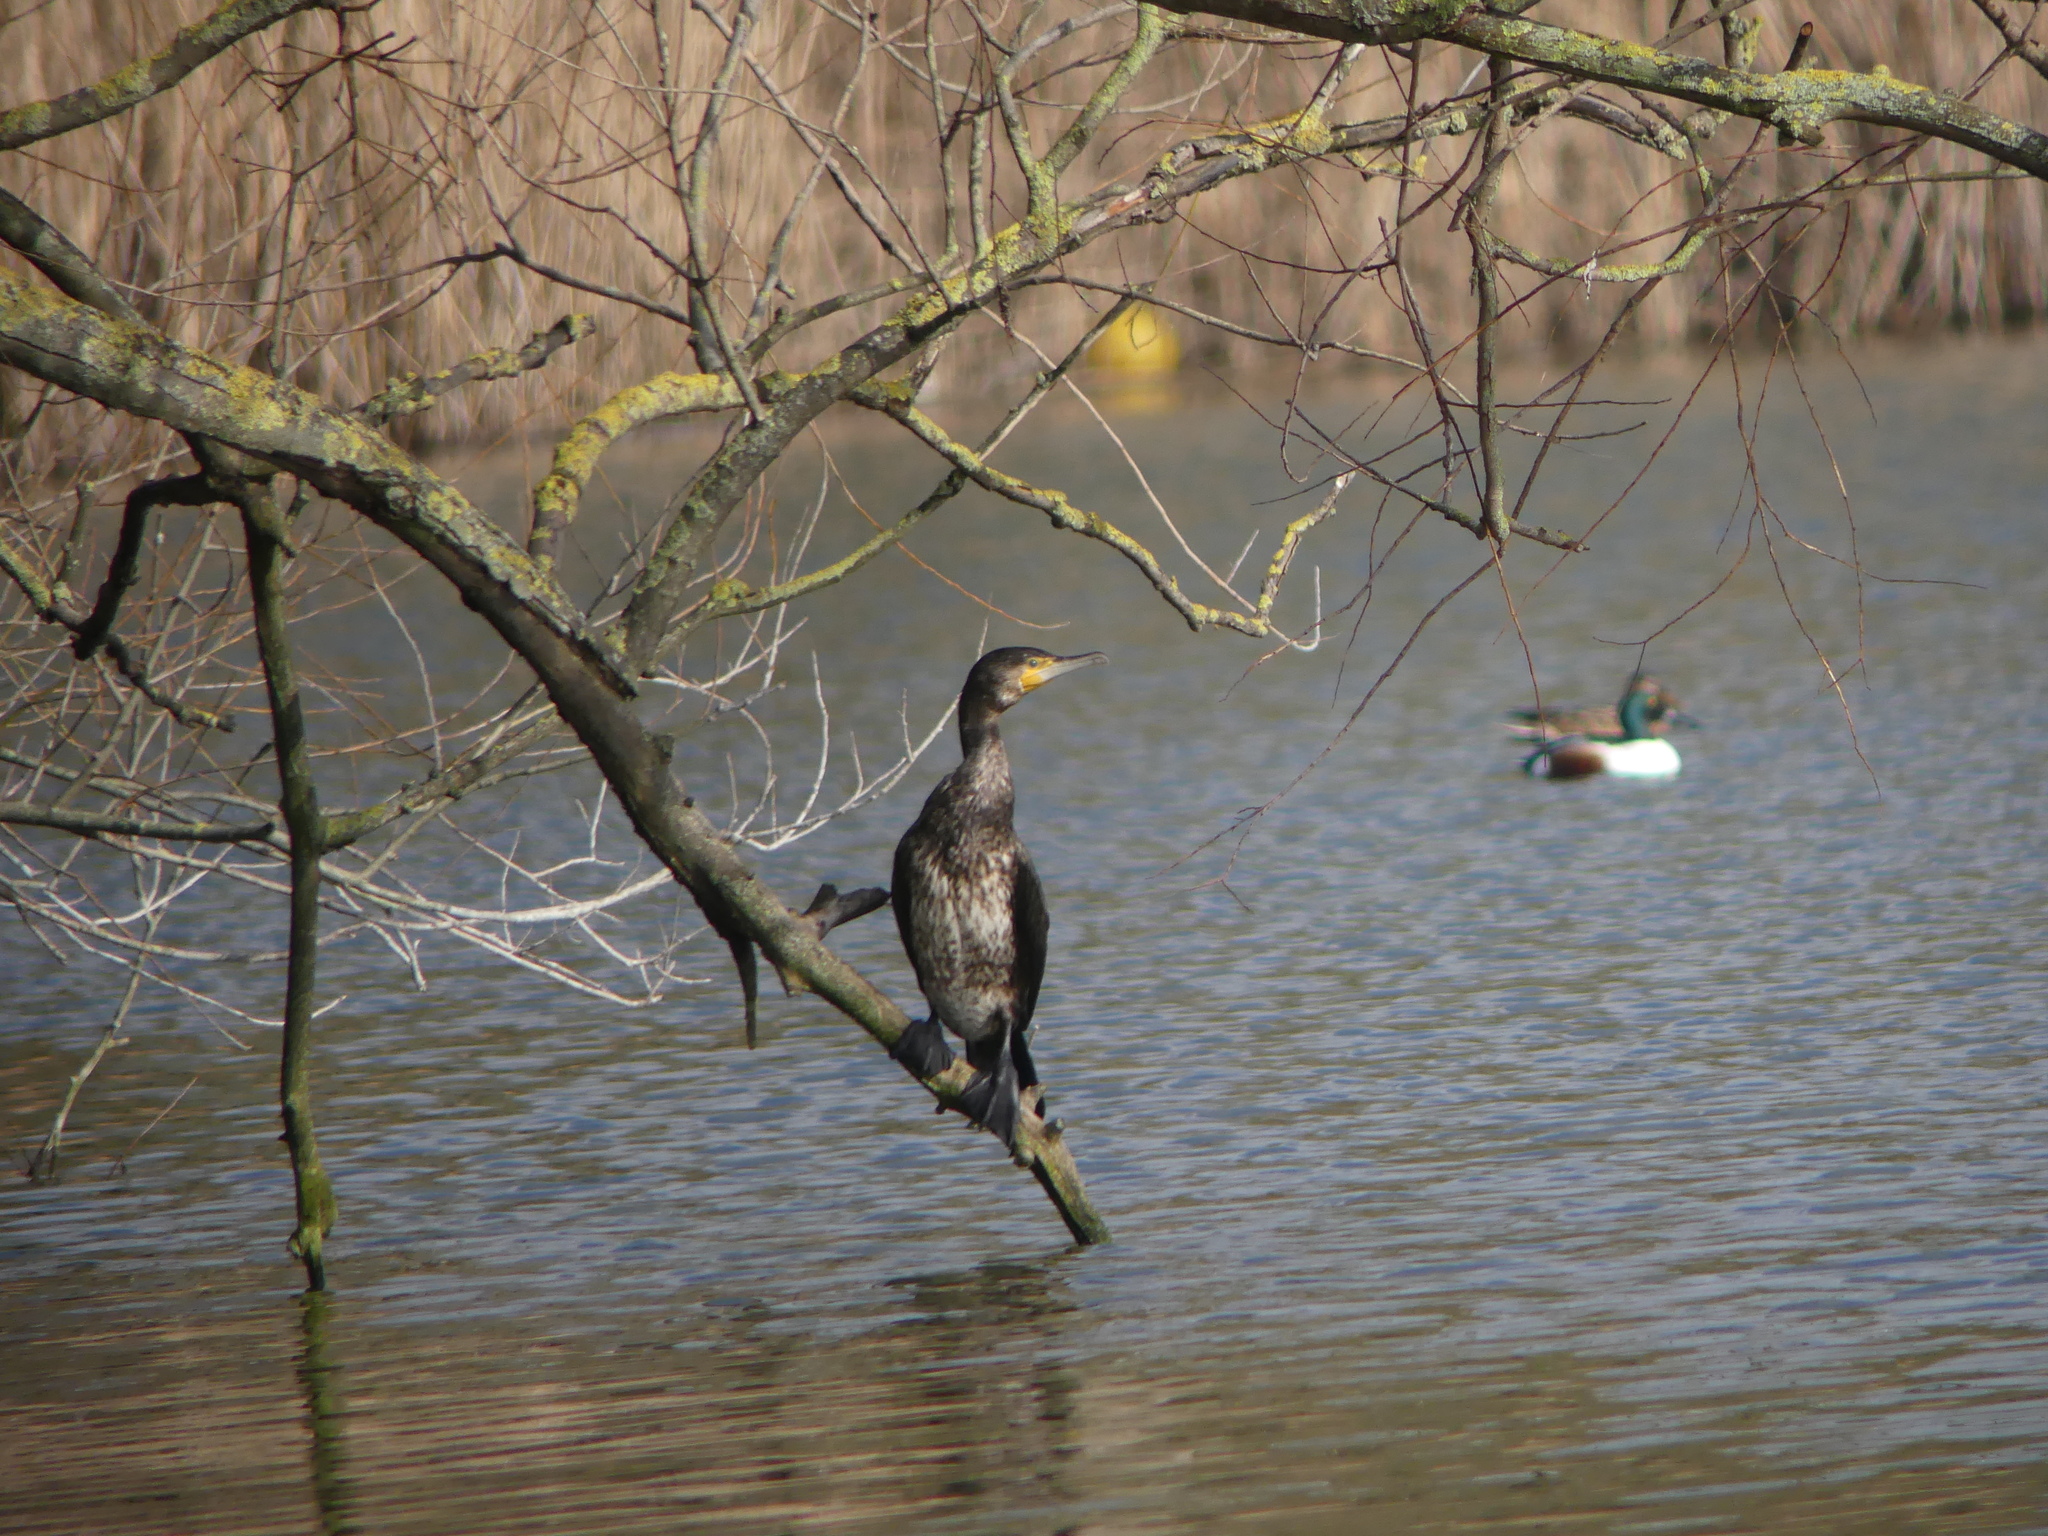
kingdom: Animalia
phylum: Chordata
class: Aves
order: Suliformes
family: Phalacrocoracidae
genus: Phalacrocorax
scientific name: Phalacrocorax carbo
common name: Great cormorant
